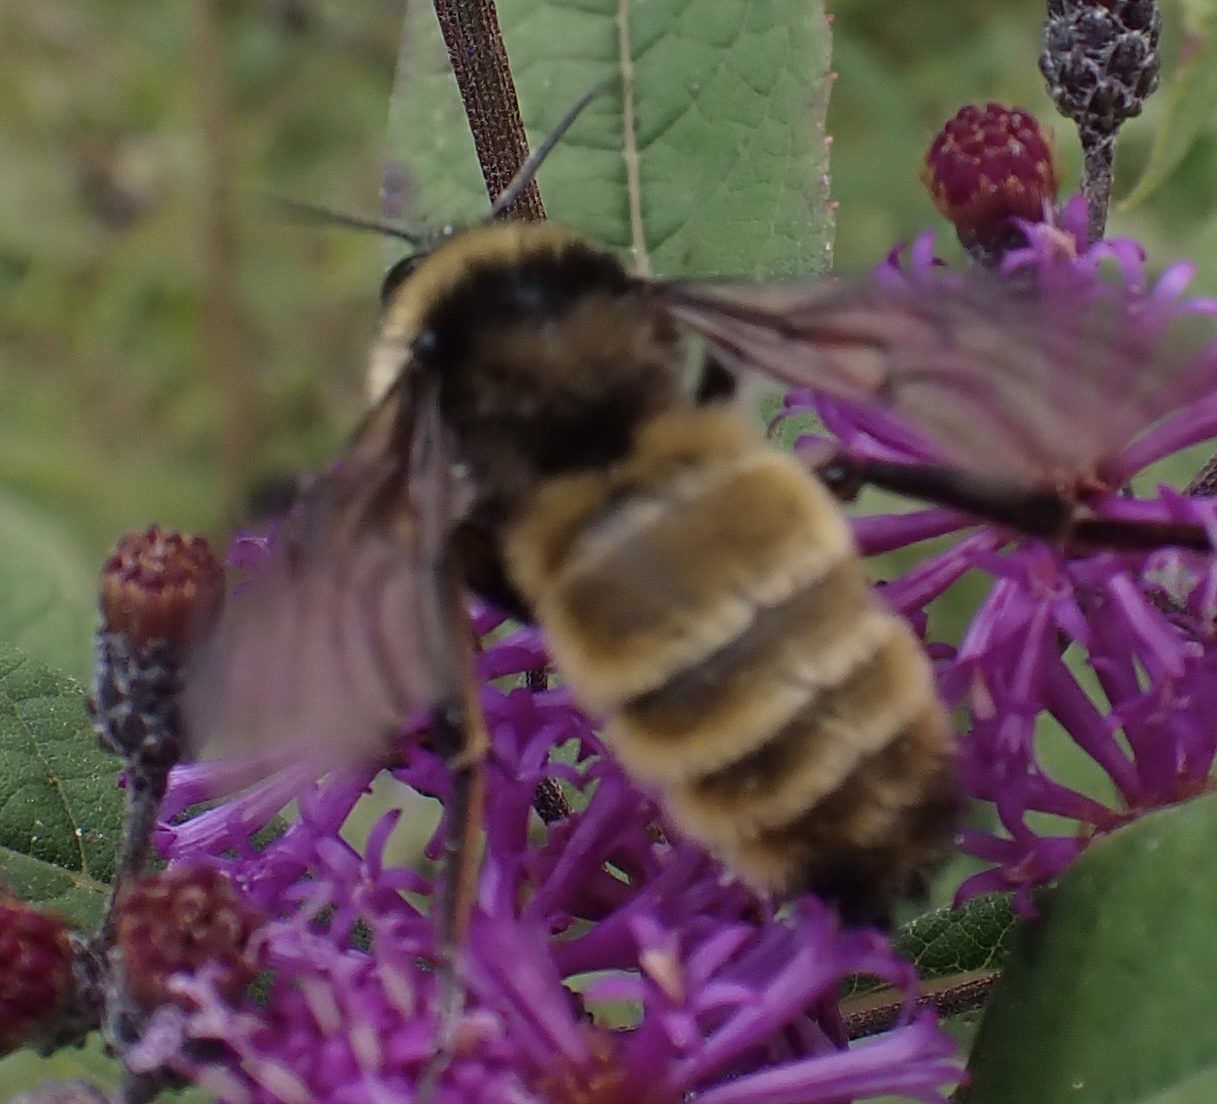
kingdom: Animalia
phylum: Arthropoda
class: Insecta
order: Hymenoptera
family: Apidae
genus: Bombus
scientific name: Bombus pensylvanicus
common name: Bumble bee
